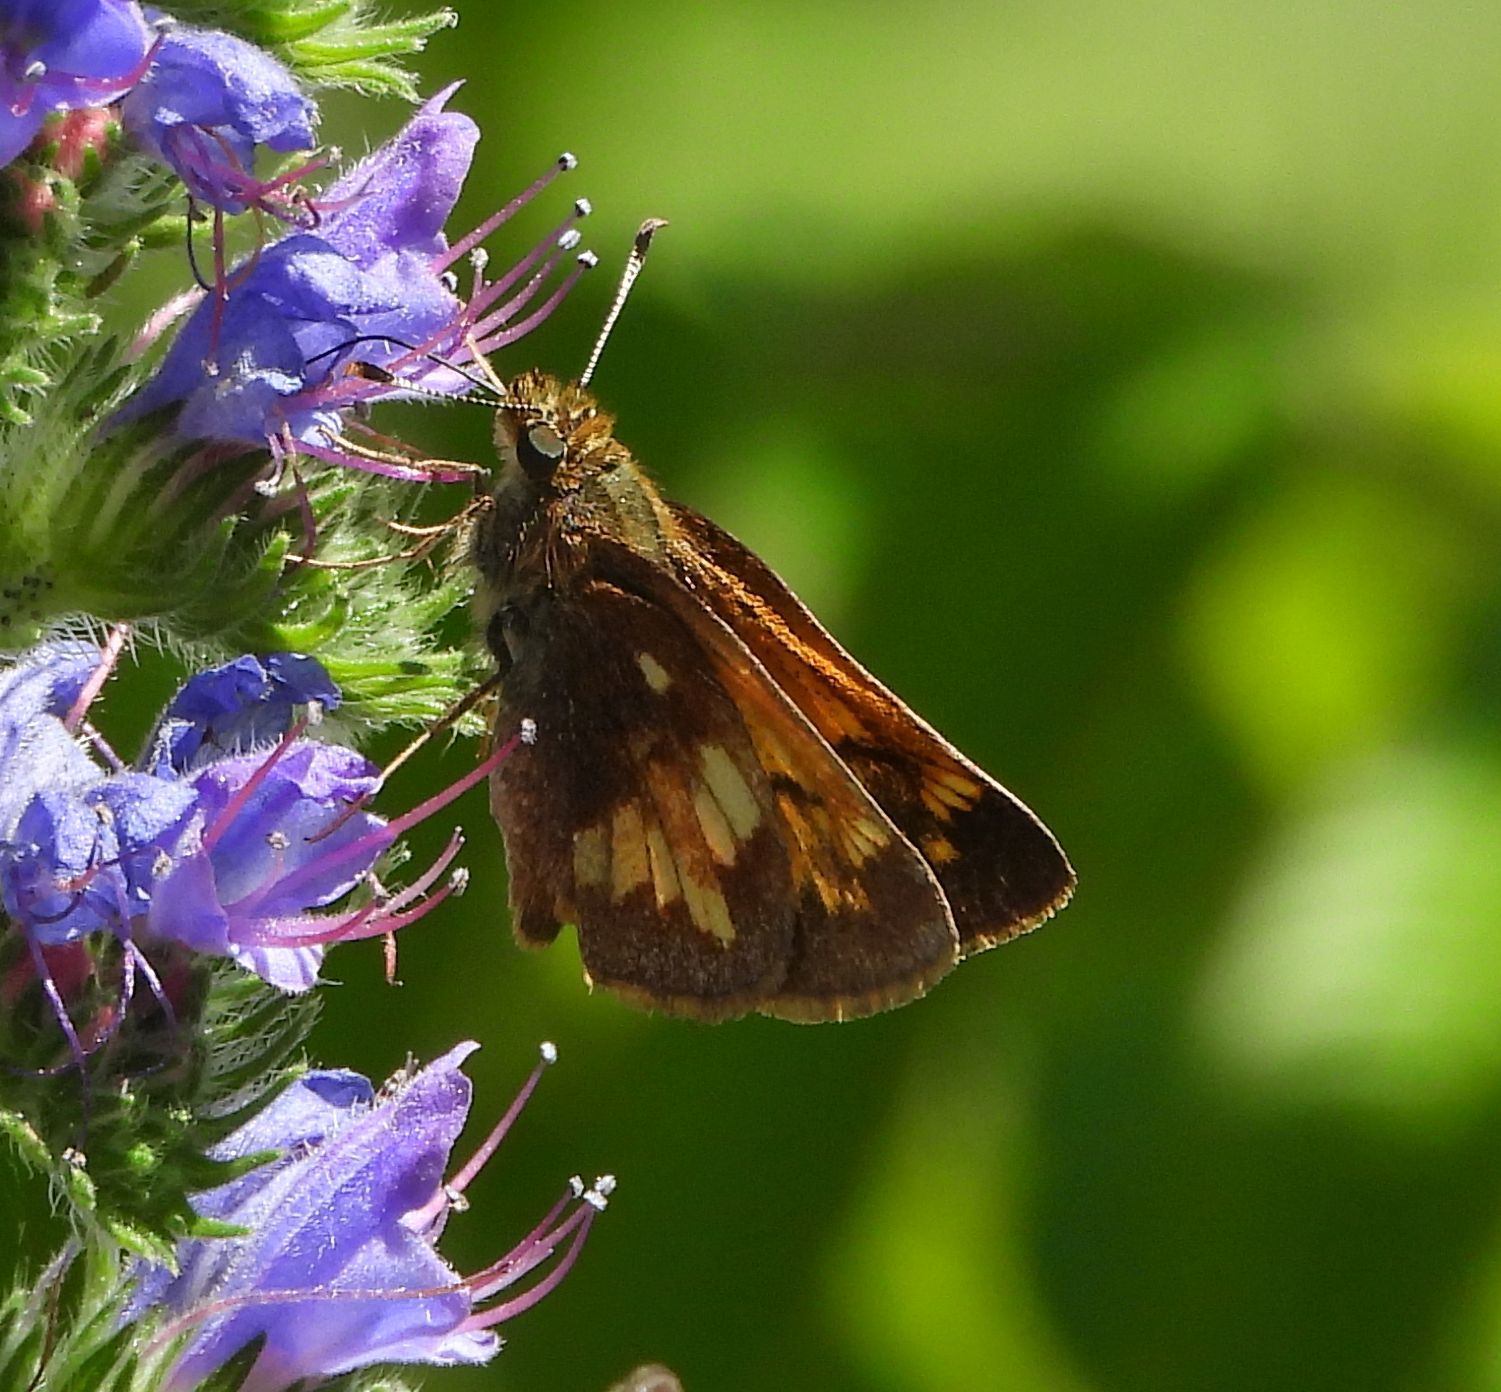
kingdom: Animalia
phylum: Arthropoda
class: Insecta
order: Lepidoptera
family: Hesperiidae
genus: Lon
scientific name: Lon hobomok
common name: Hobomok skipper
